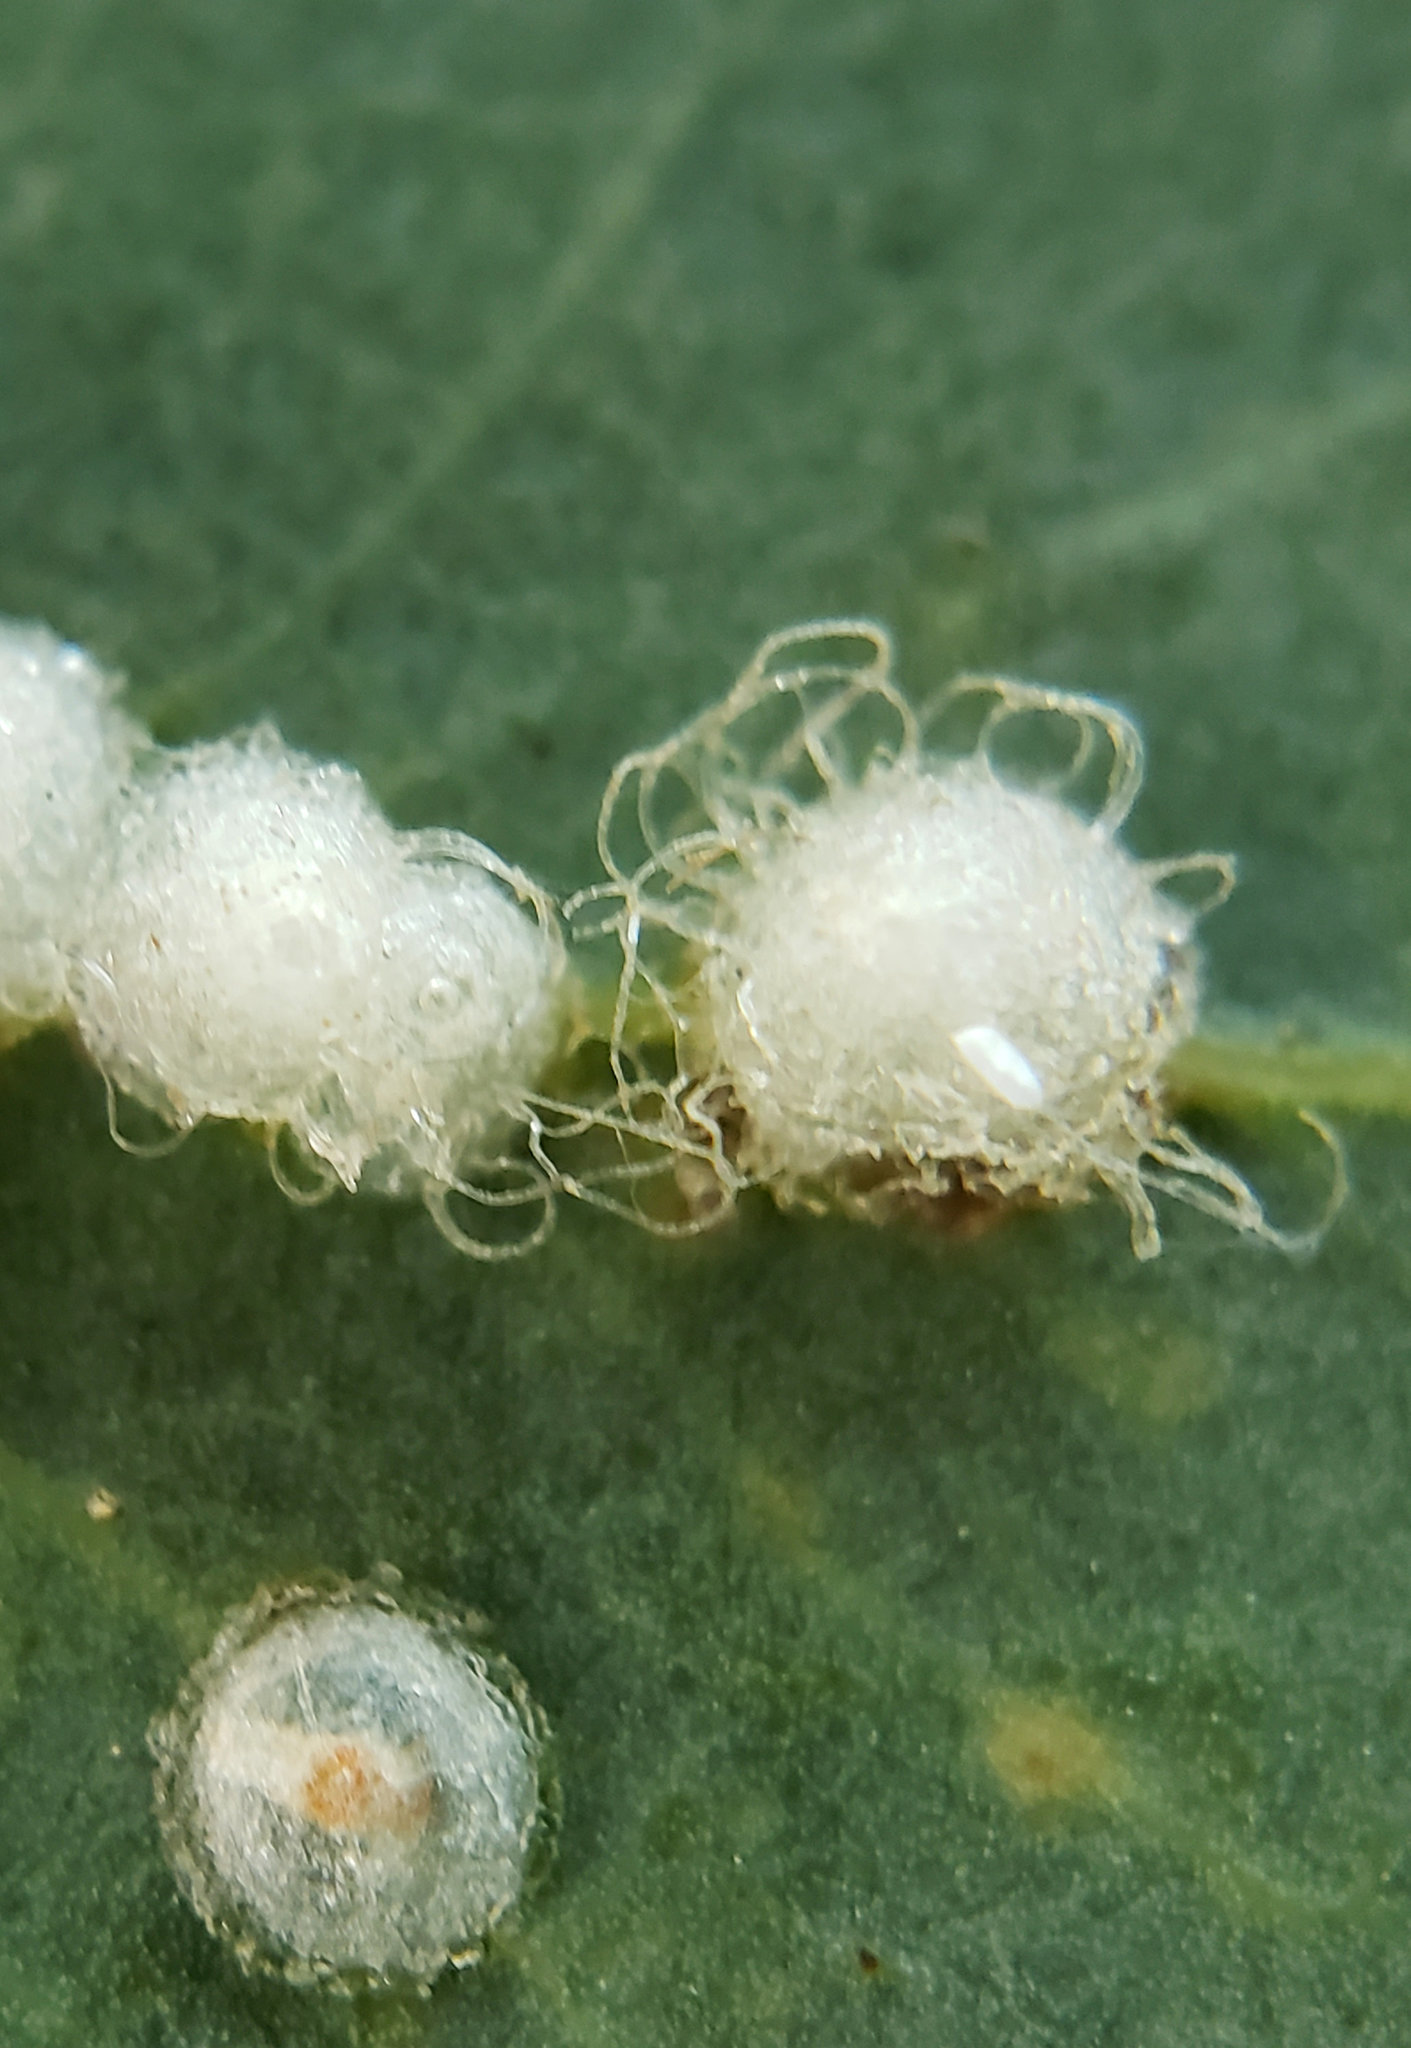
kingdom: Animalia
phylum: Arthropoda
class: Insecta
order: Hemiptera
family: Aphalaridae
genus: Glycaspis
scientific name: Glycaspis brimblecombei
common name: Red gum lerp psyllid
